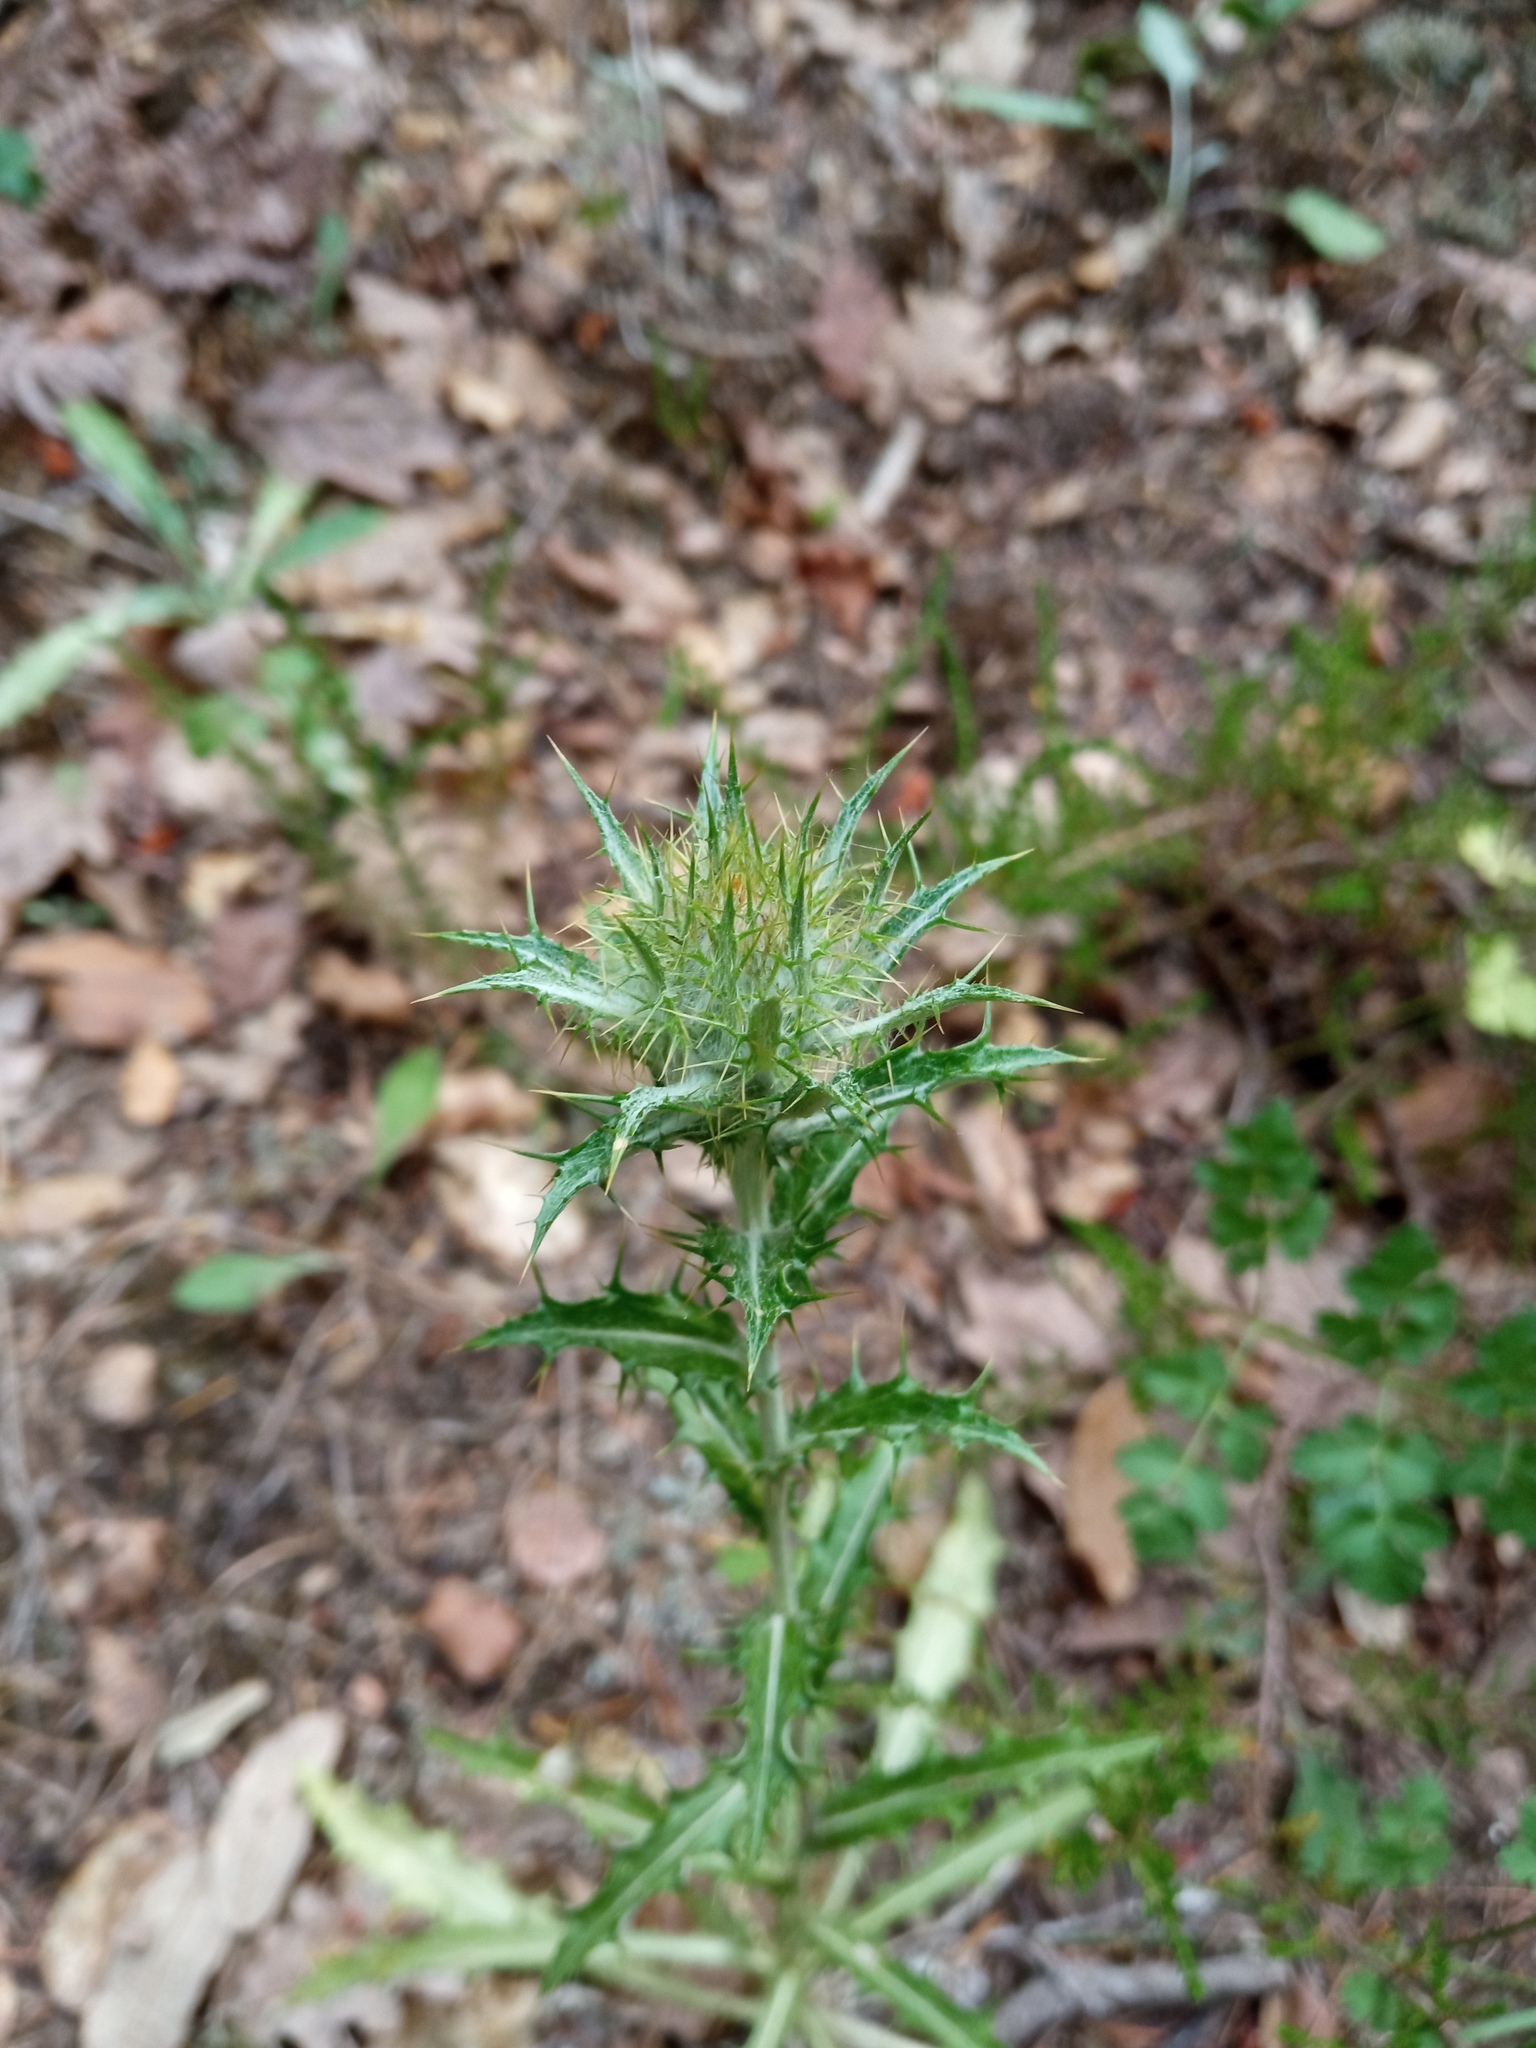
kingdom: Plantae
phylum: Tracheophyta
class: Magnoliopsida
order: Asterales
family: Asteraceae
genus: Carlina
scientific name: Carlina vulgaris
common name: Carline thistle
